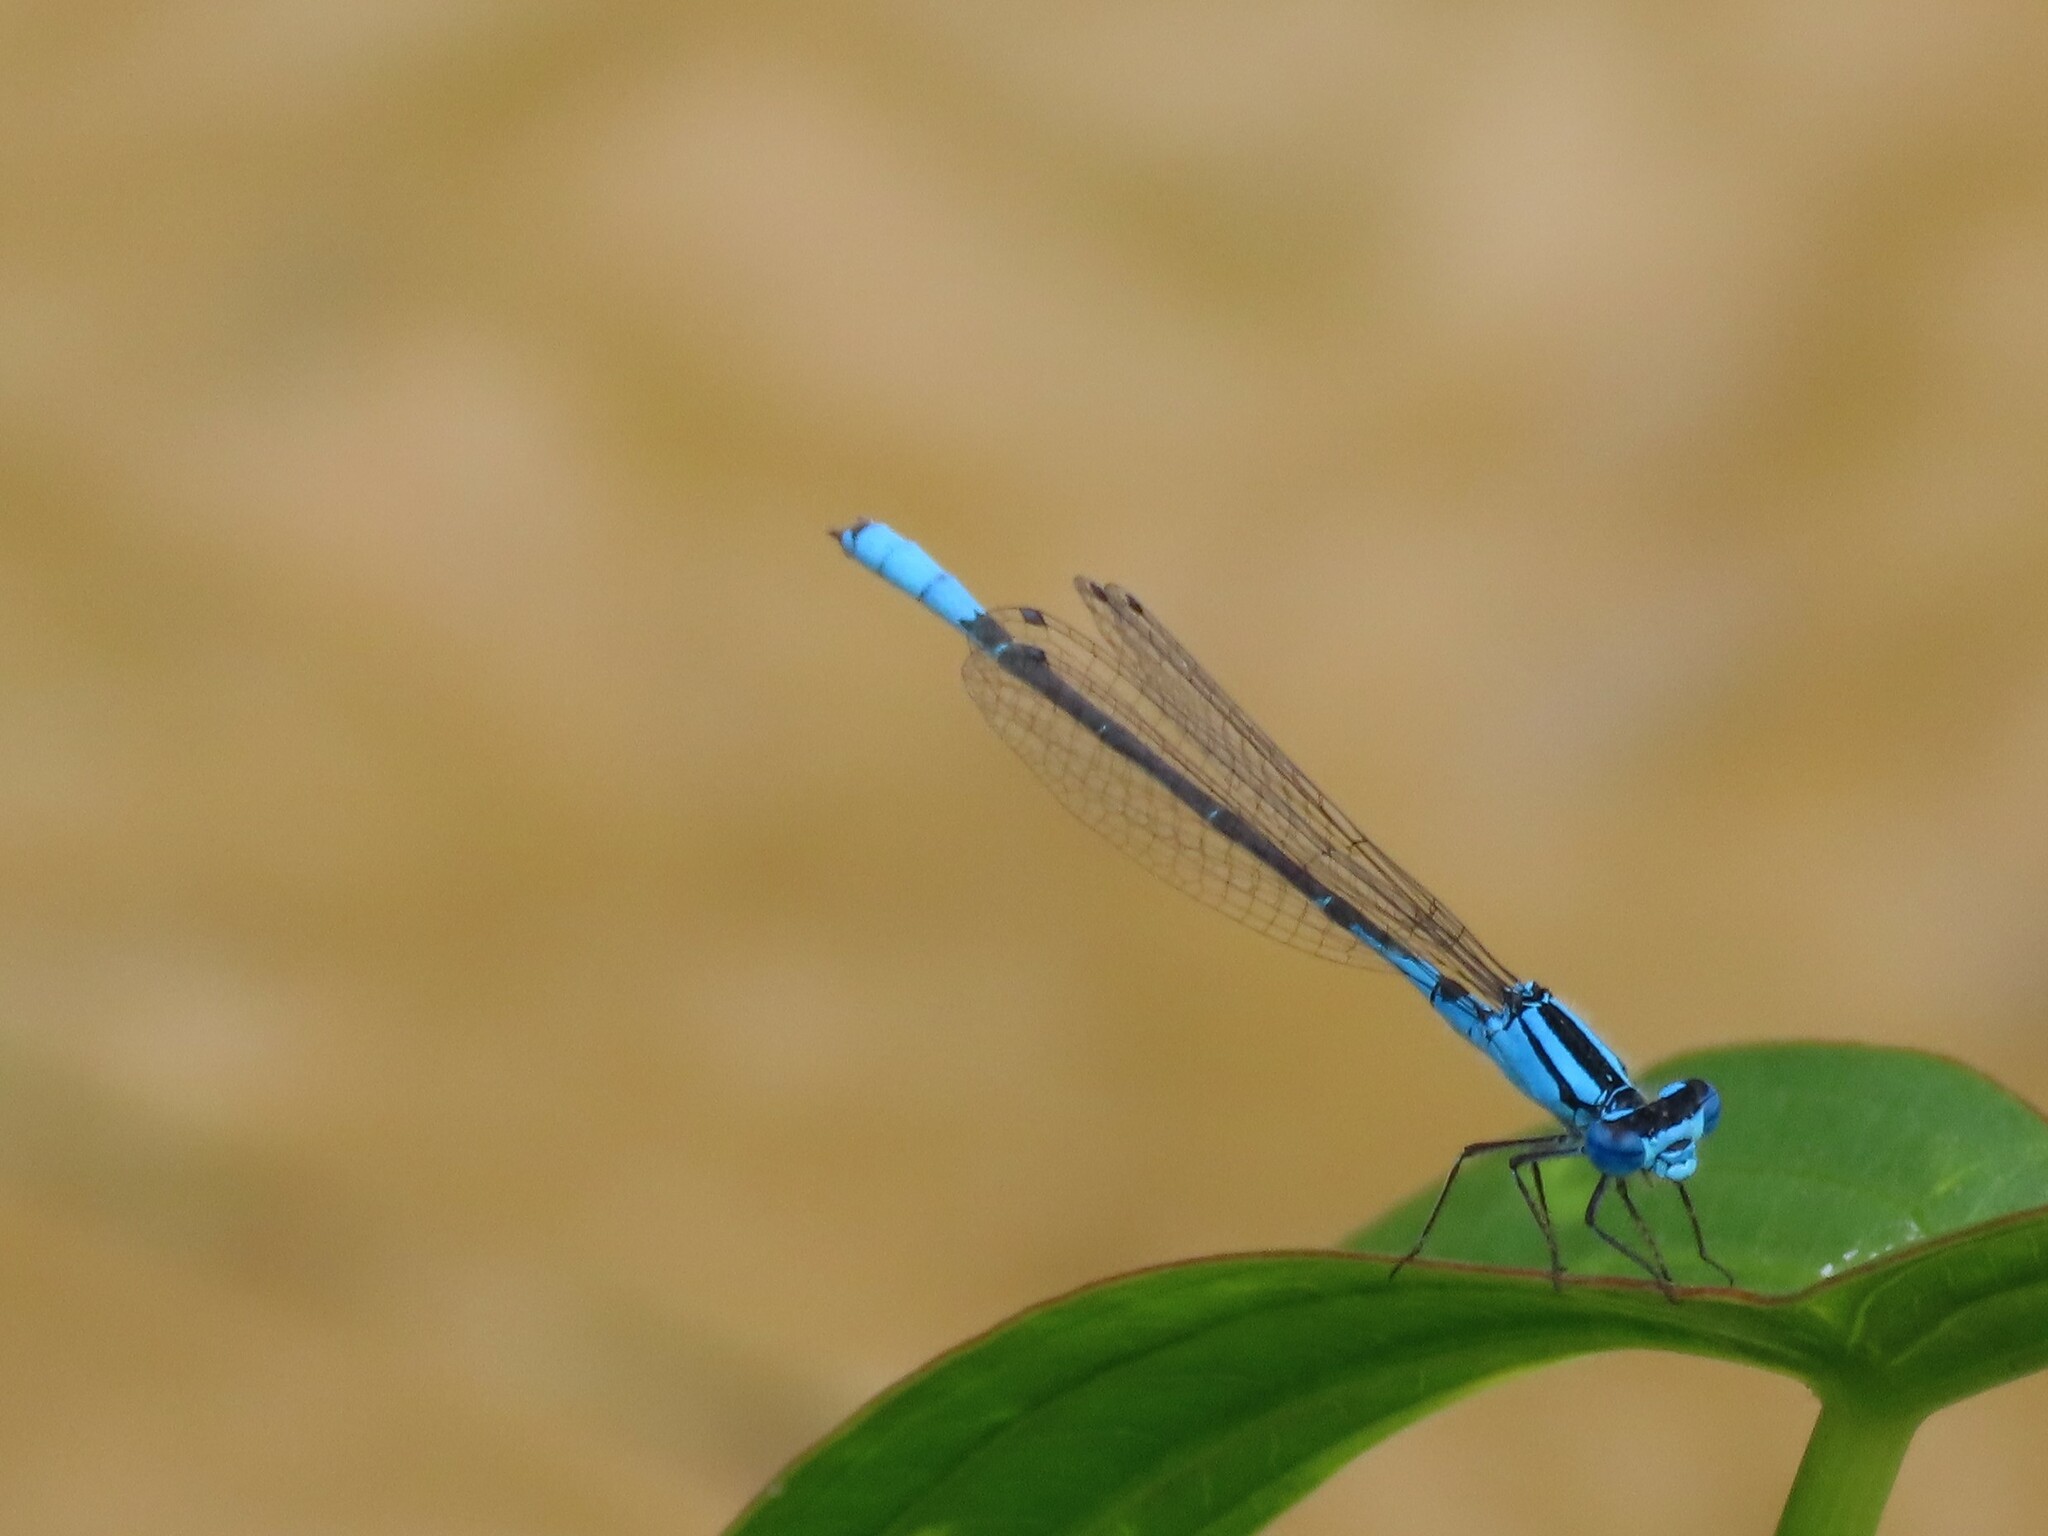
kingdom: Animalia
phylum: Arthropoda
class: Insecta
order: Odonata
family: Coenagrionidae
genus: Enallagma
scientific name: Enallagma aspersum
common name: Azure bluet
